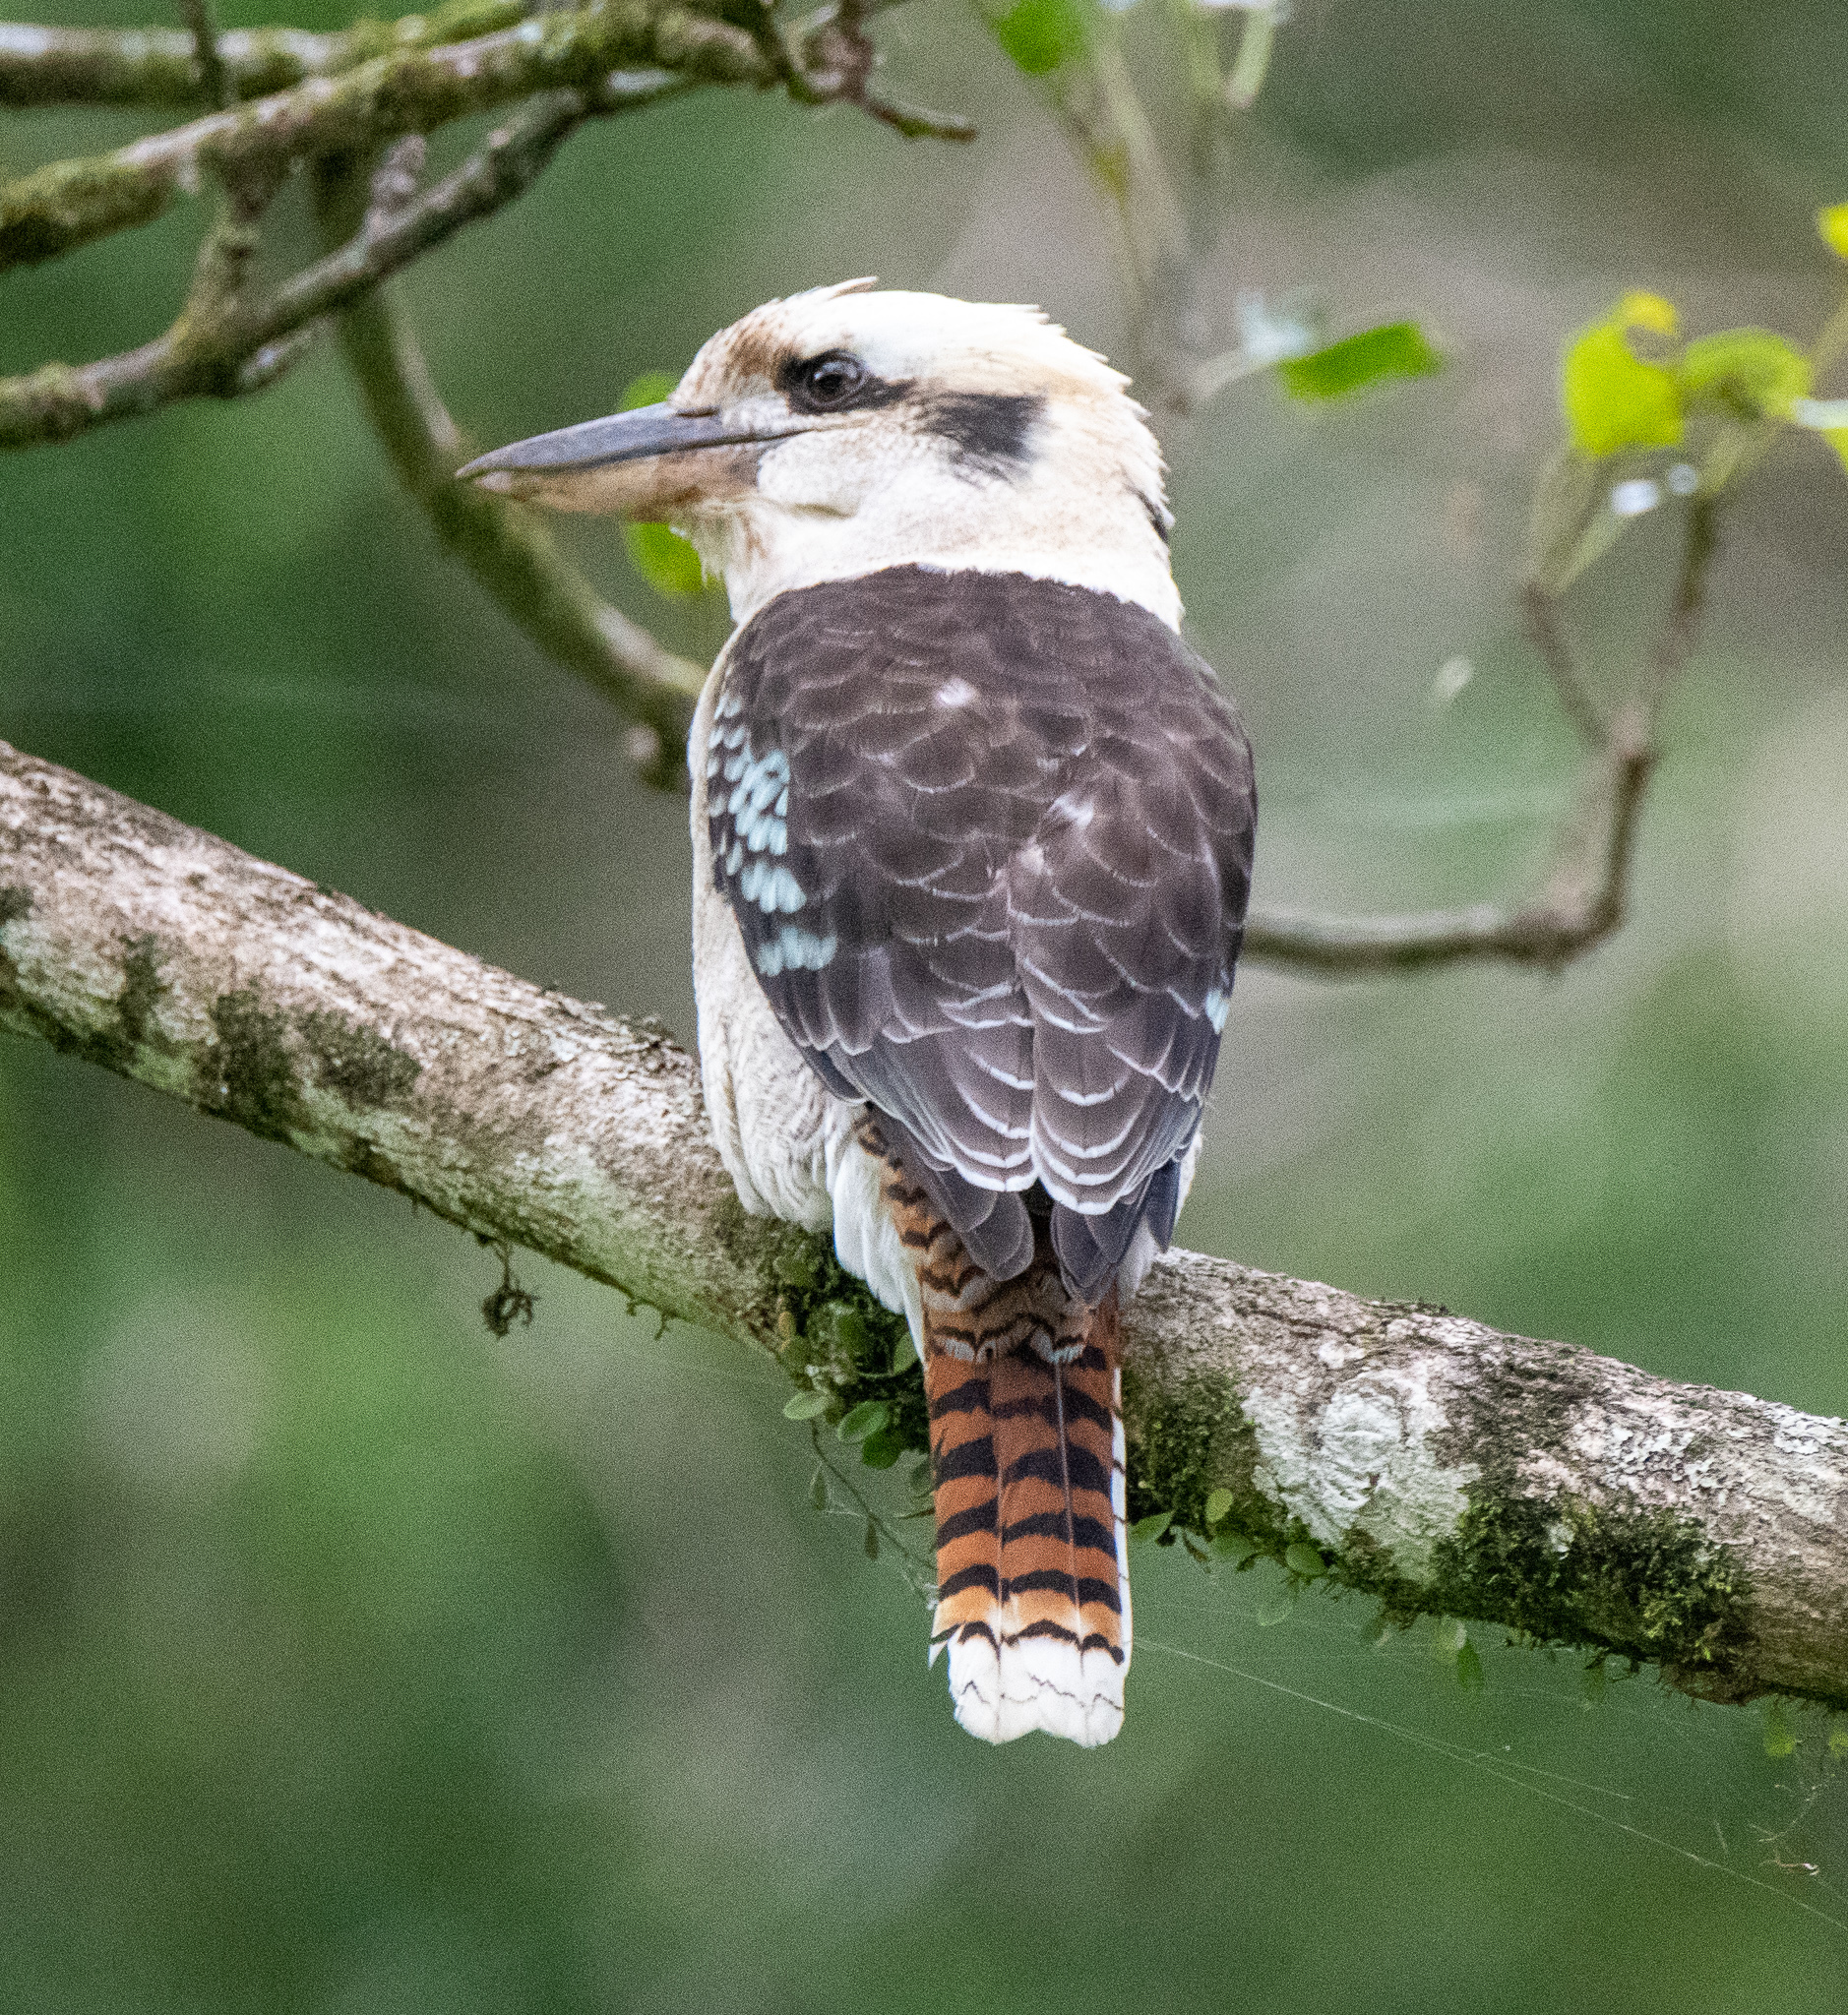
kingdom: Animalia
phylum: Chordata
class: Aves
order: Coraciiformes
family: Alcedinidae
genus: Dacelo
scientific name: Dacelo novaeguineae
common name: Laughing kookaburra
